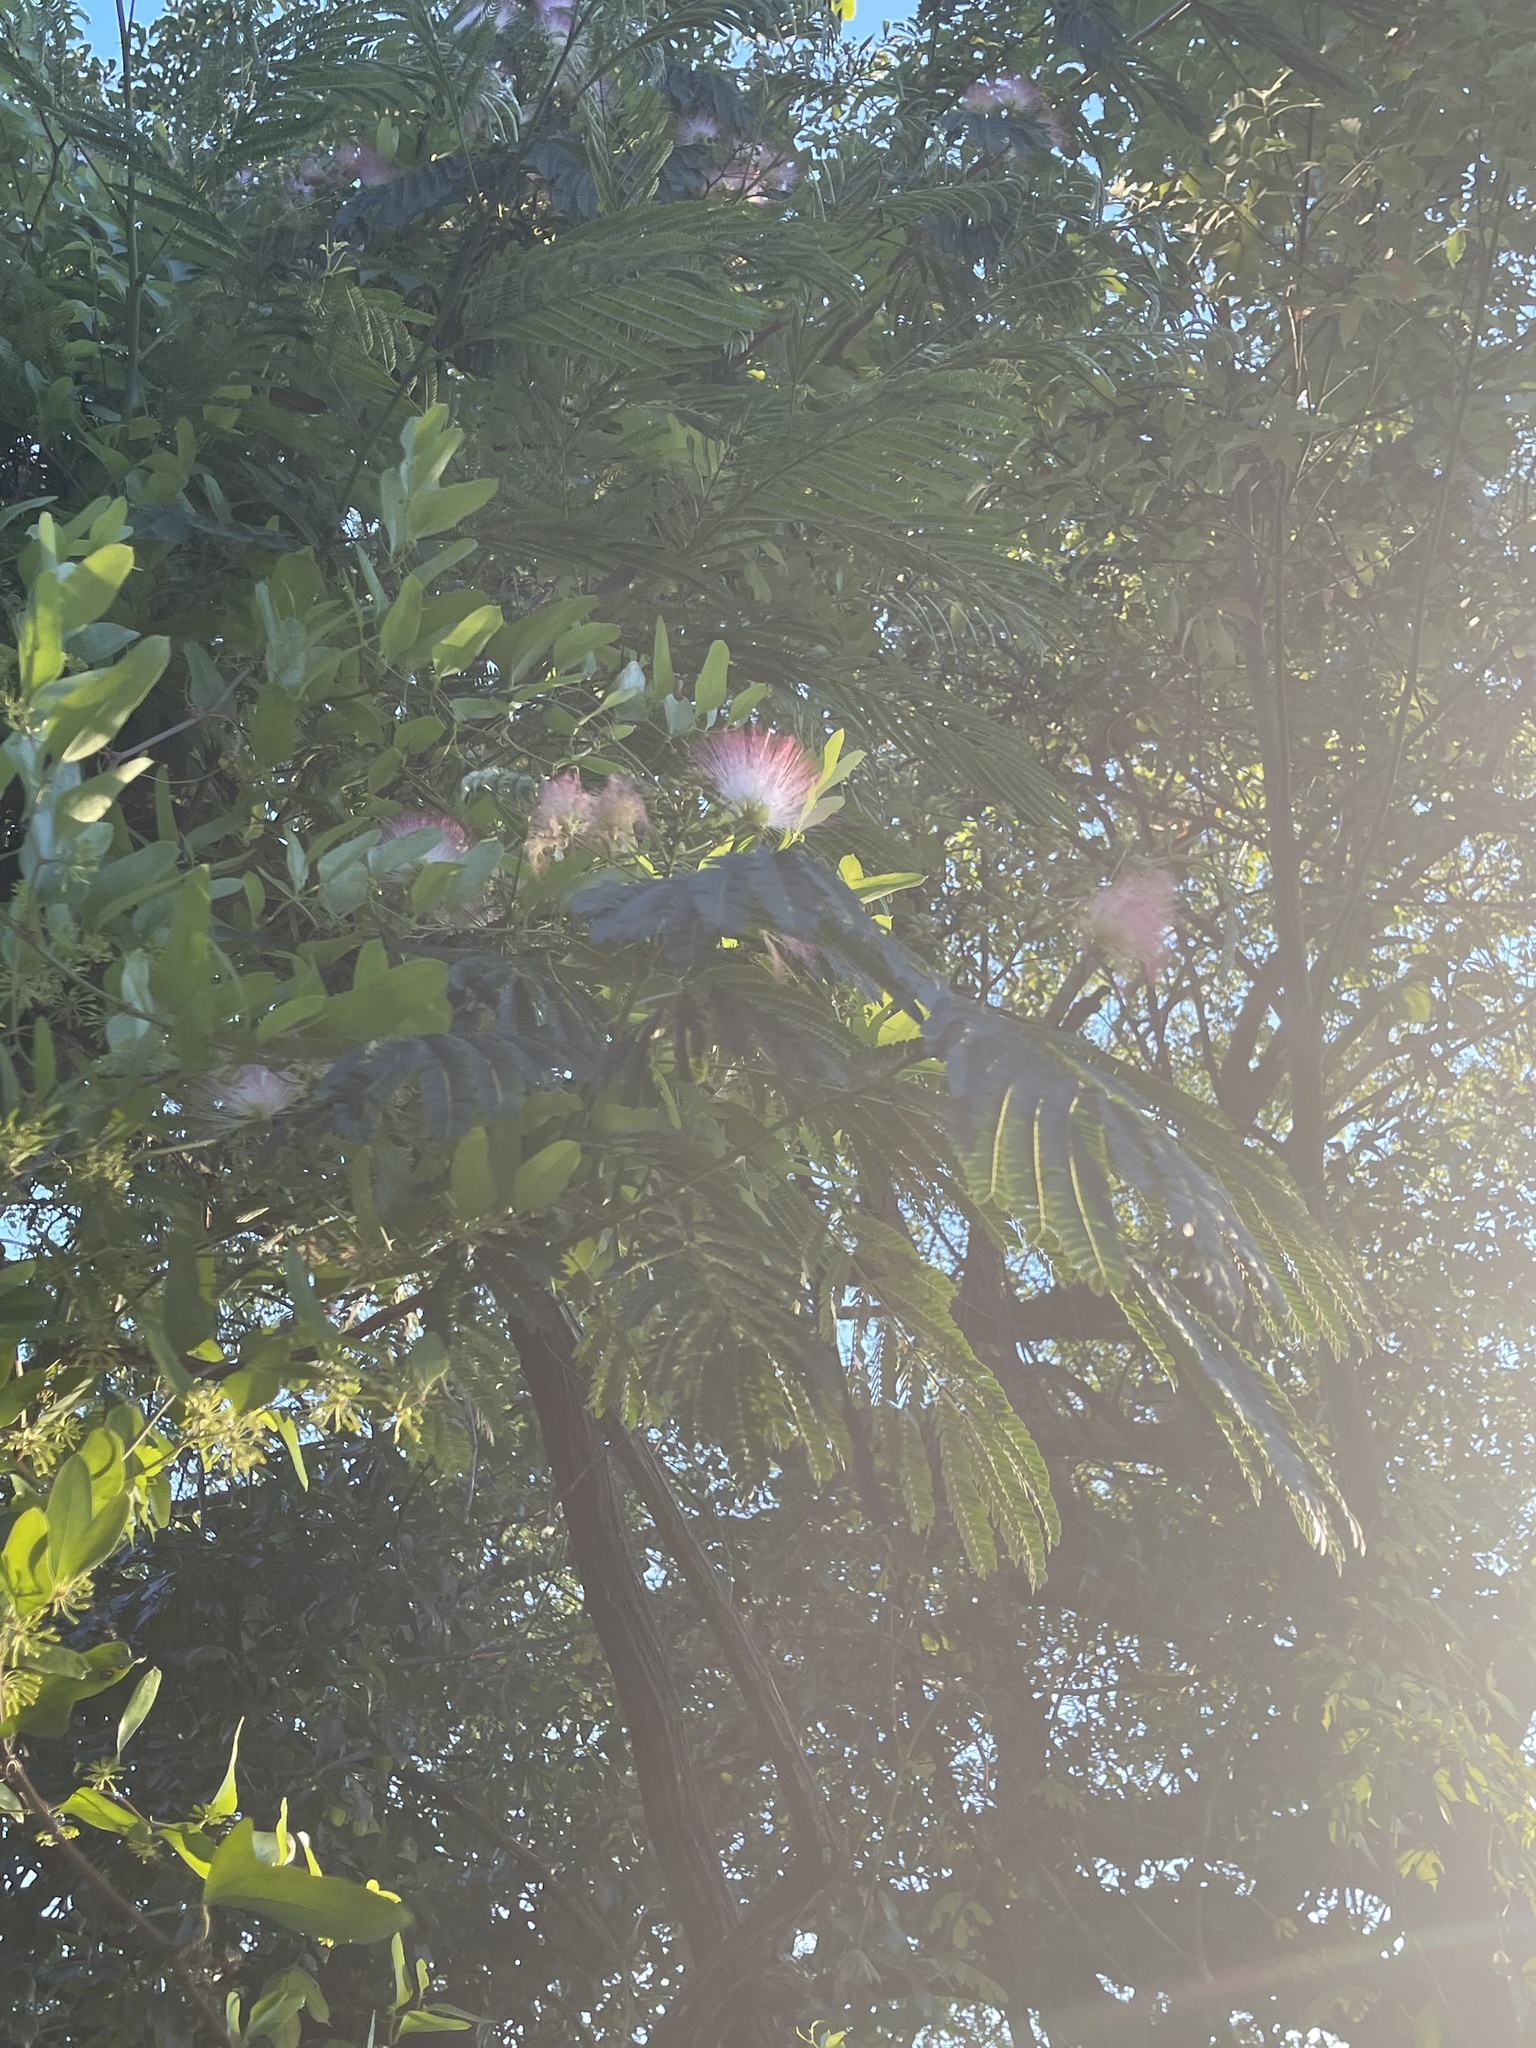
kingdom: Plantae
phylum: Tracheophyta
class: Magnoliopsida
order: Fabales
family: Fabaceae
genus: Albizia
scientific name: Albizia julibrissin
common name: Silktree
